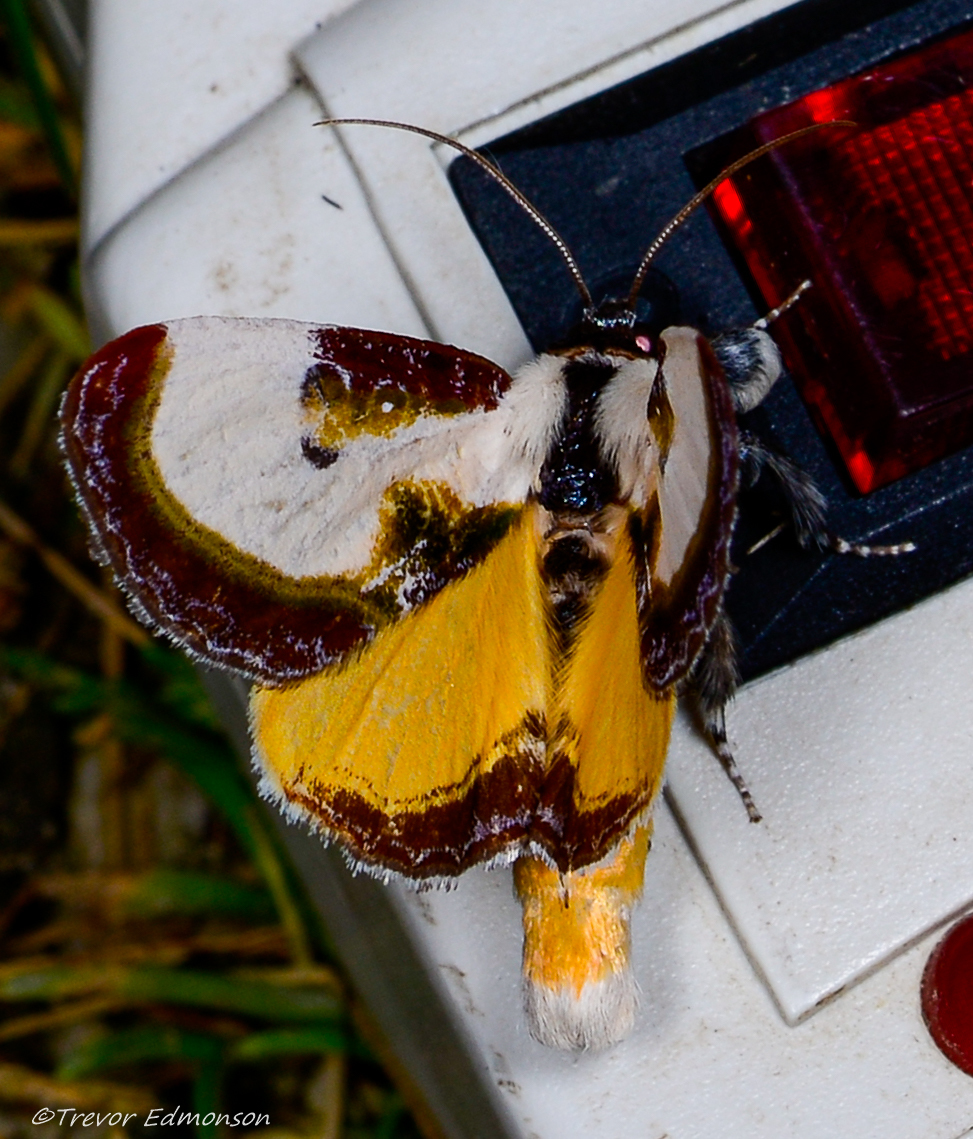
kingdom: Animalia
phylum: Arthropoda
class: Insecta
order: Lepidoptera
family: Noctuidae
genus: Eudryas
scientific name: Eudryas grata
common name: Beautiful wood-nymph
